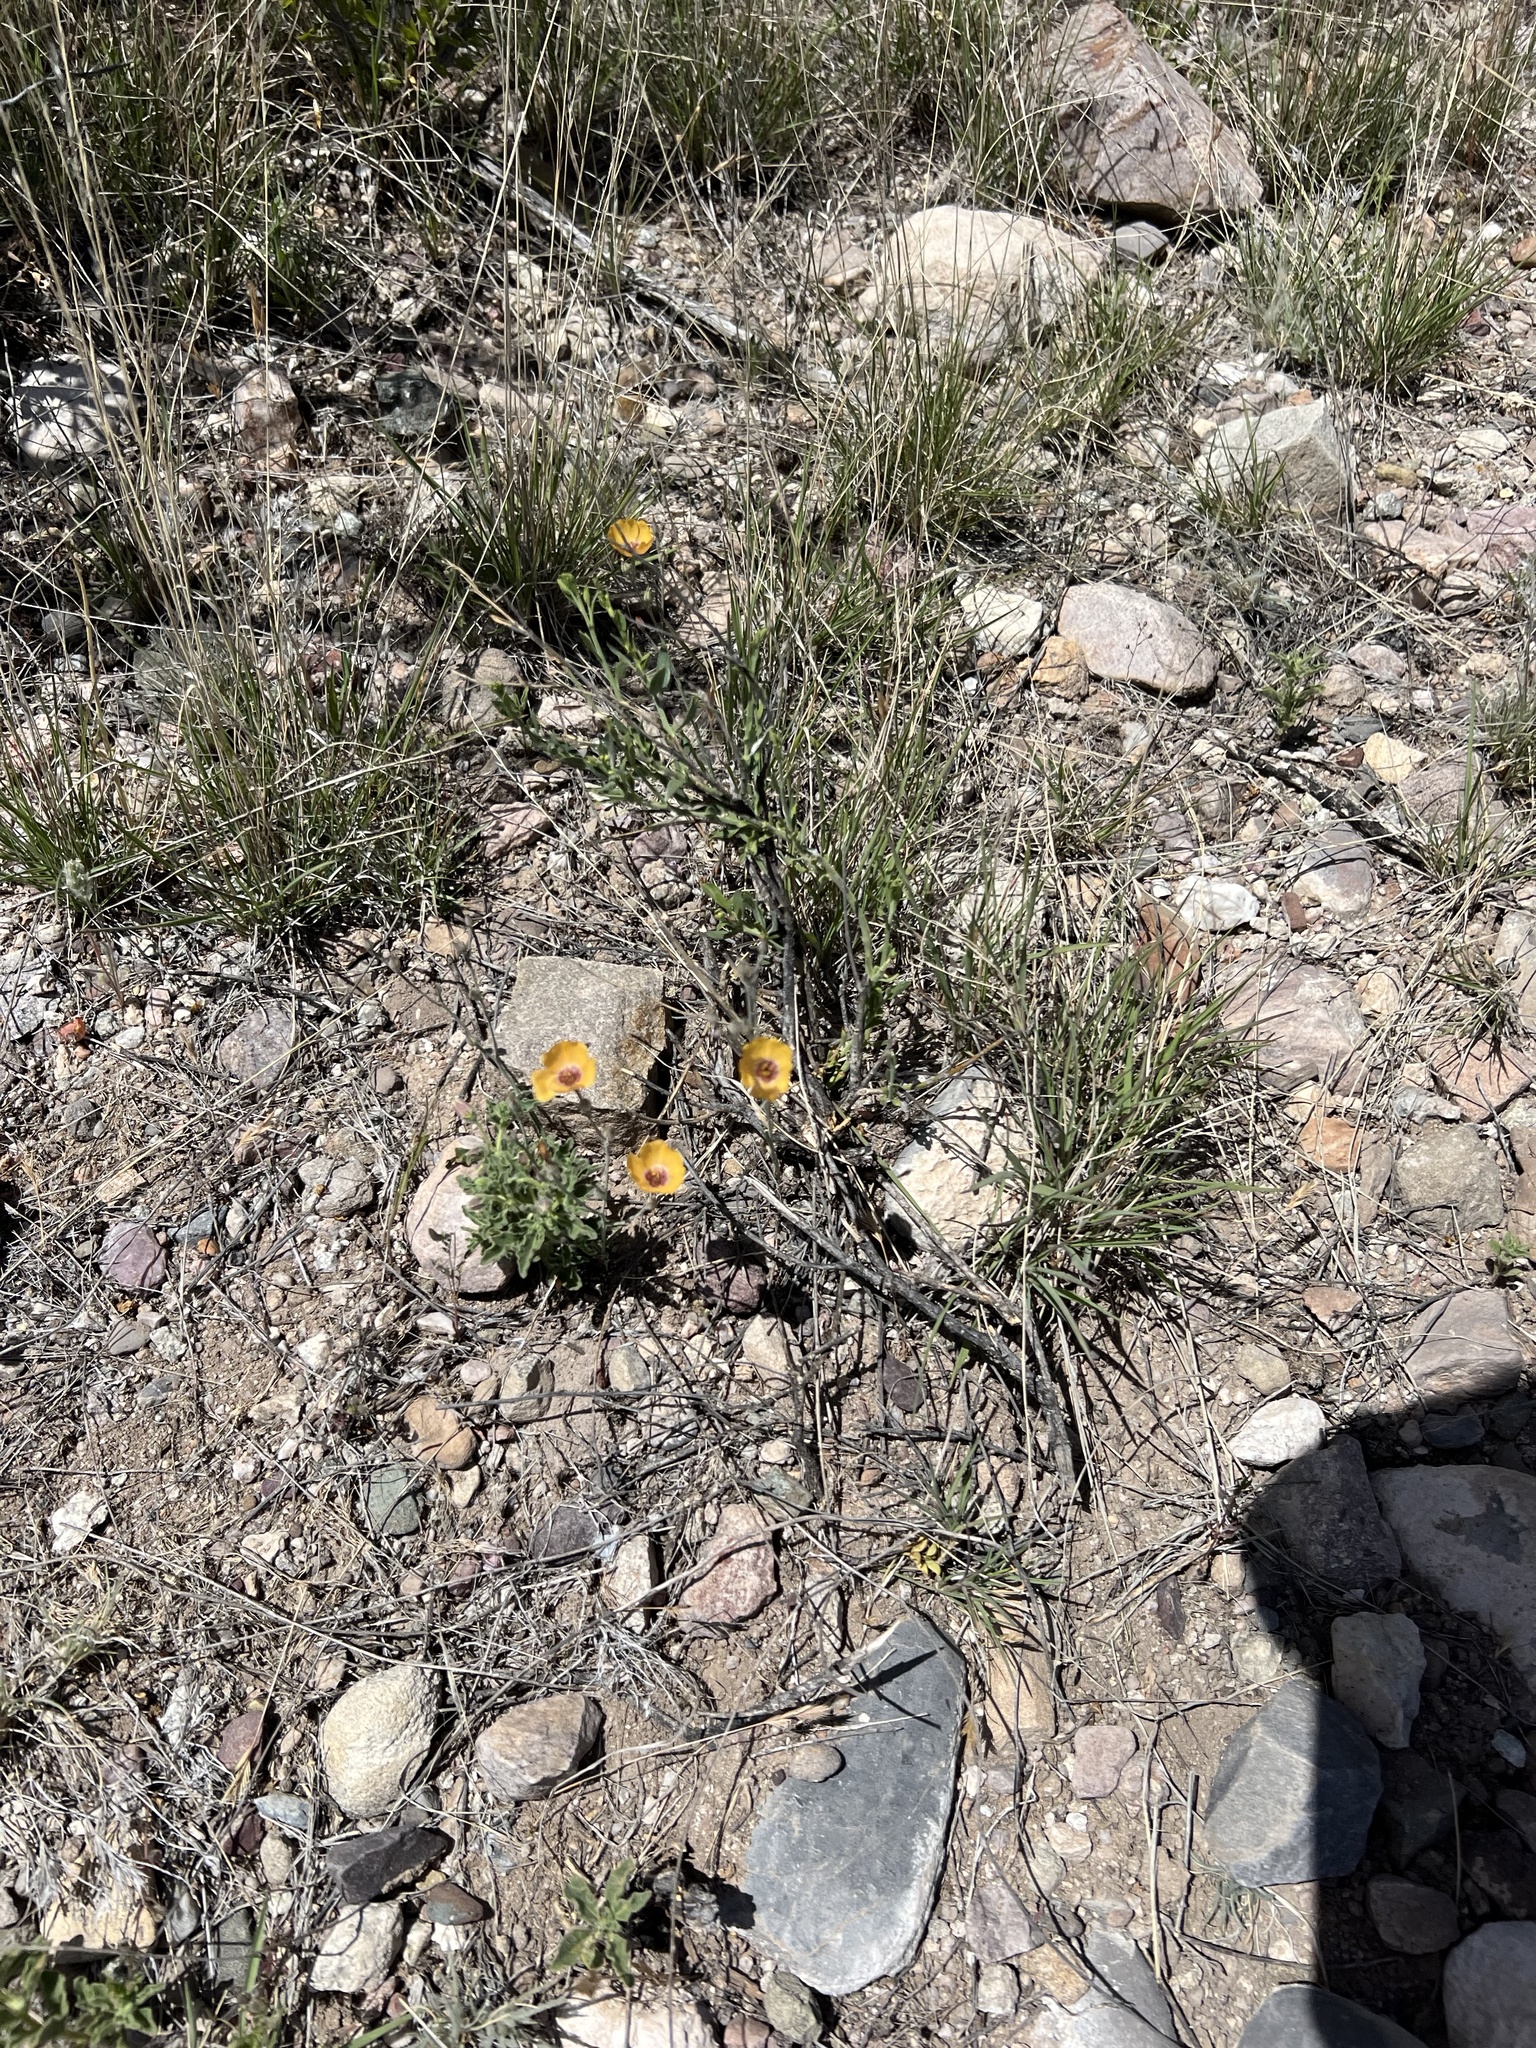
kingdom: Plantae
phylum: Tracheophyta
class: Magnoliopsida
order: Malpighiales
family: Linaceae
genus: Linum
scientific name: Linum puberulum
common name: Plains flax
